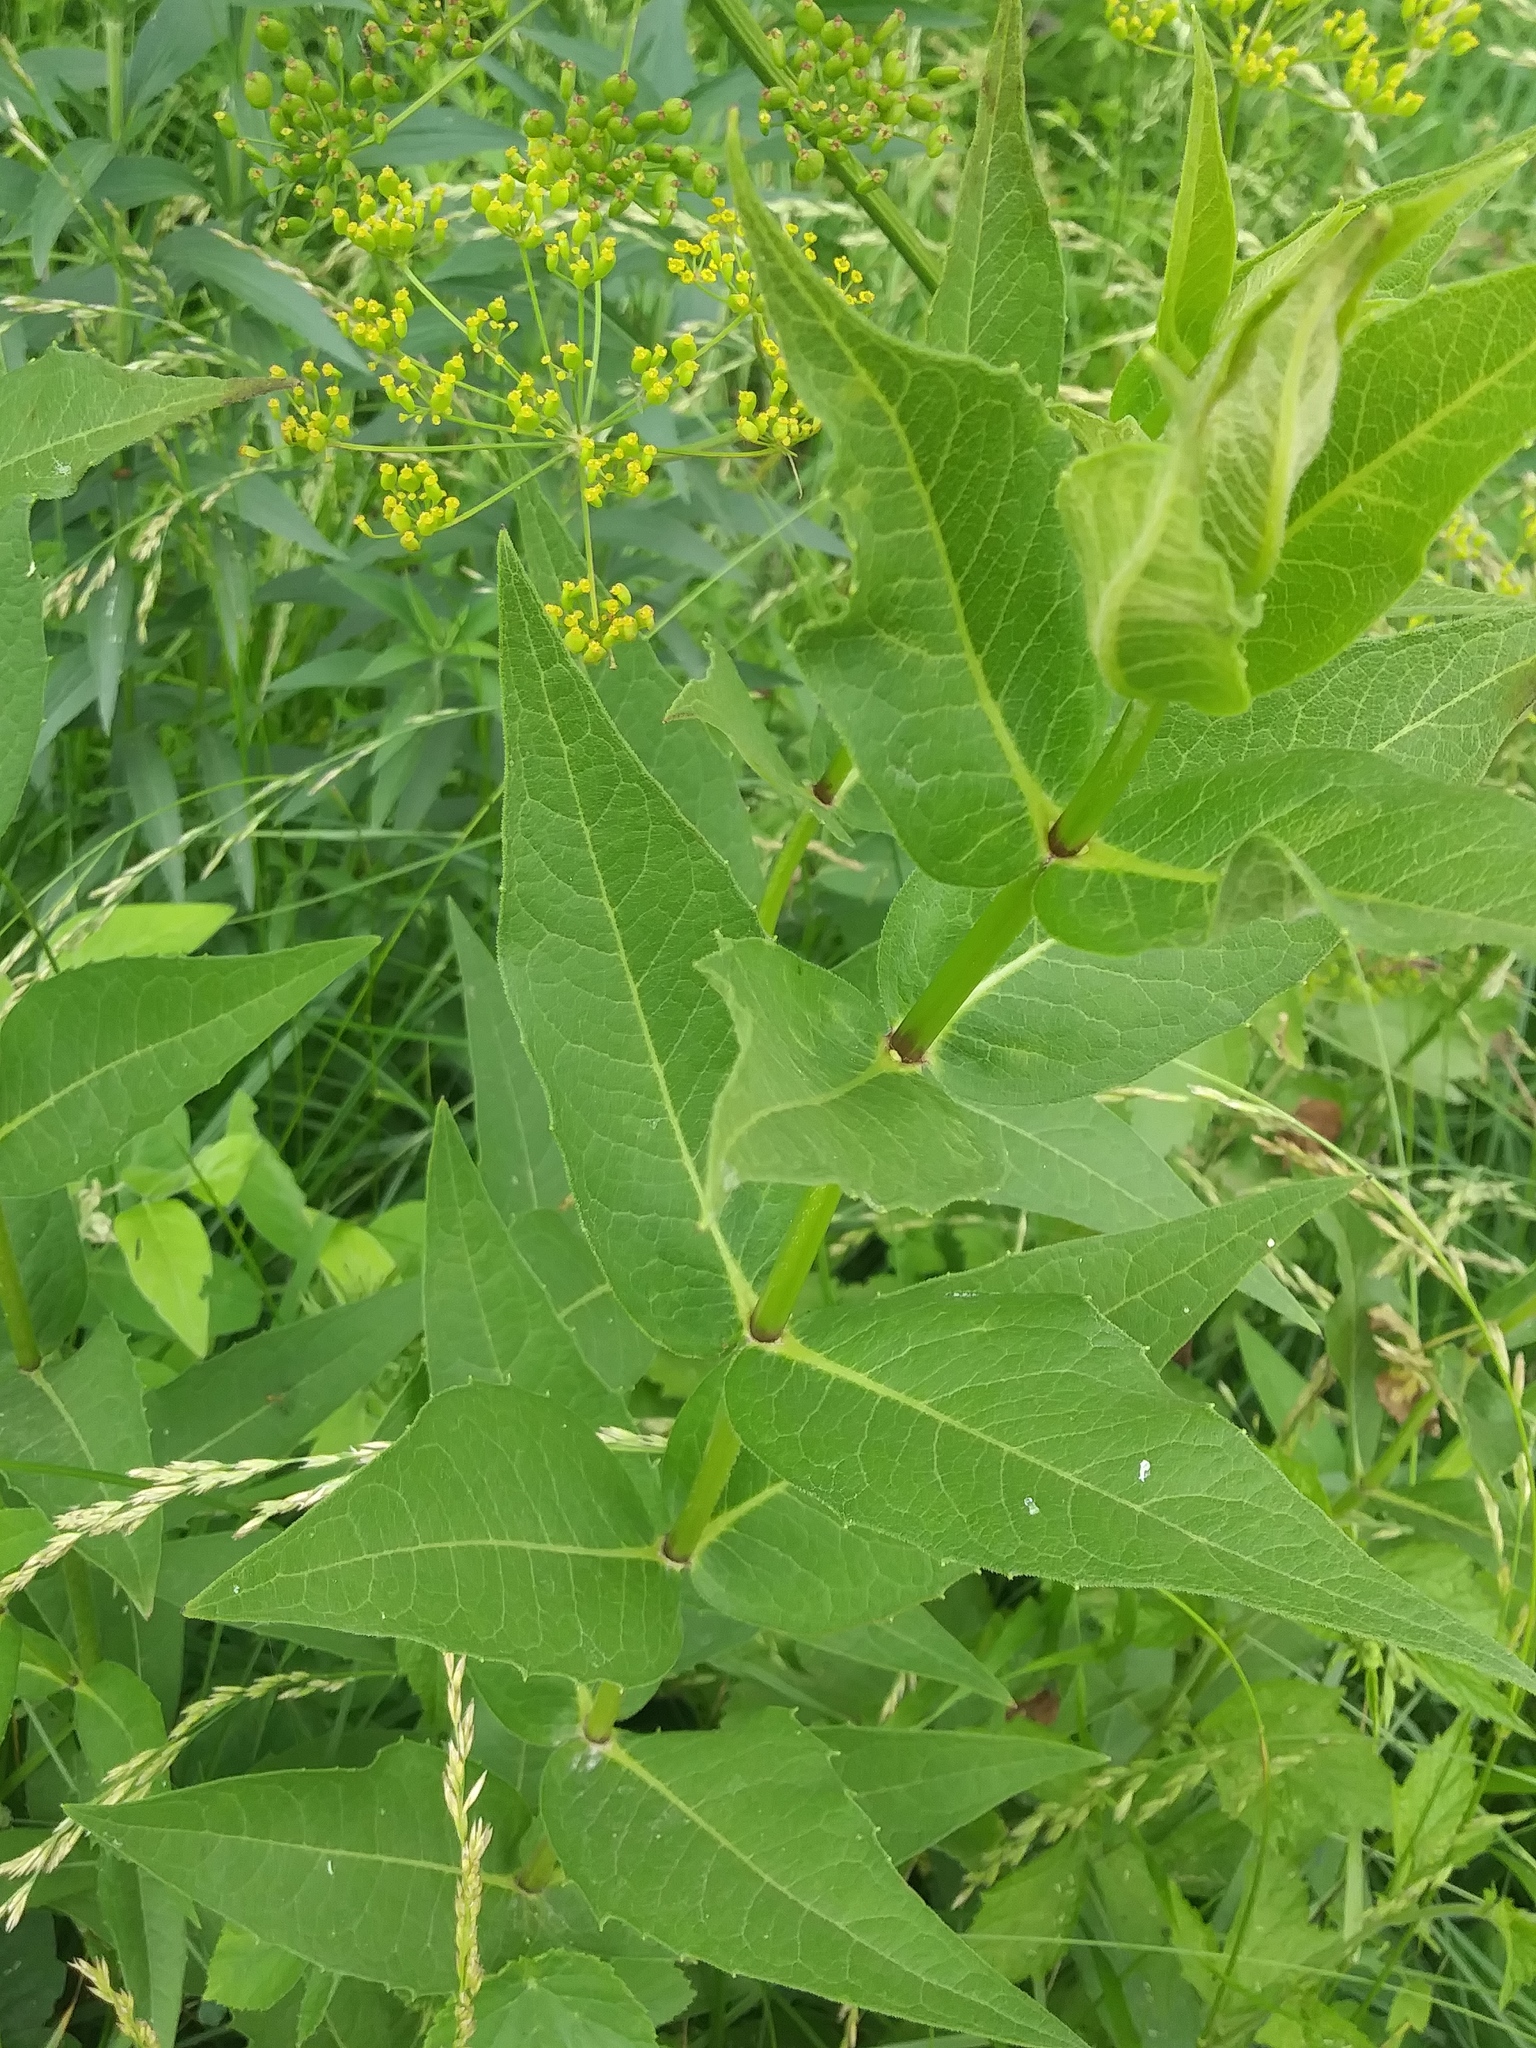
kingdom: Plantae
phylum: Tracheophyta
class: Magnoliopsida
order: Asterales
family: Asteraceae
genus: Silphium
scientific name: Silphium integrifolium
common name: Whole-leaf rosinweed
